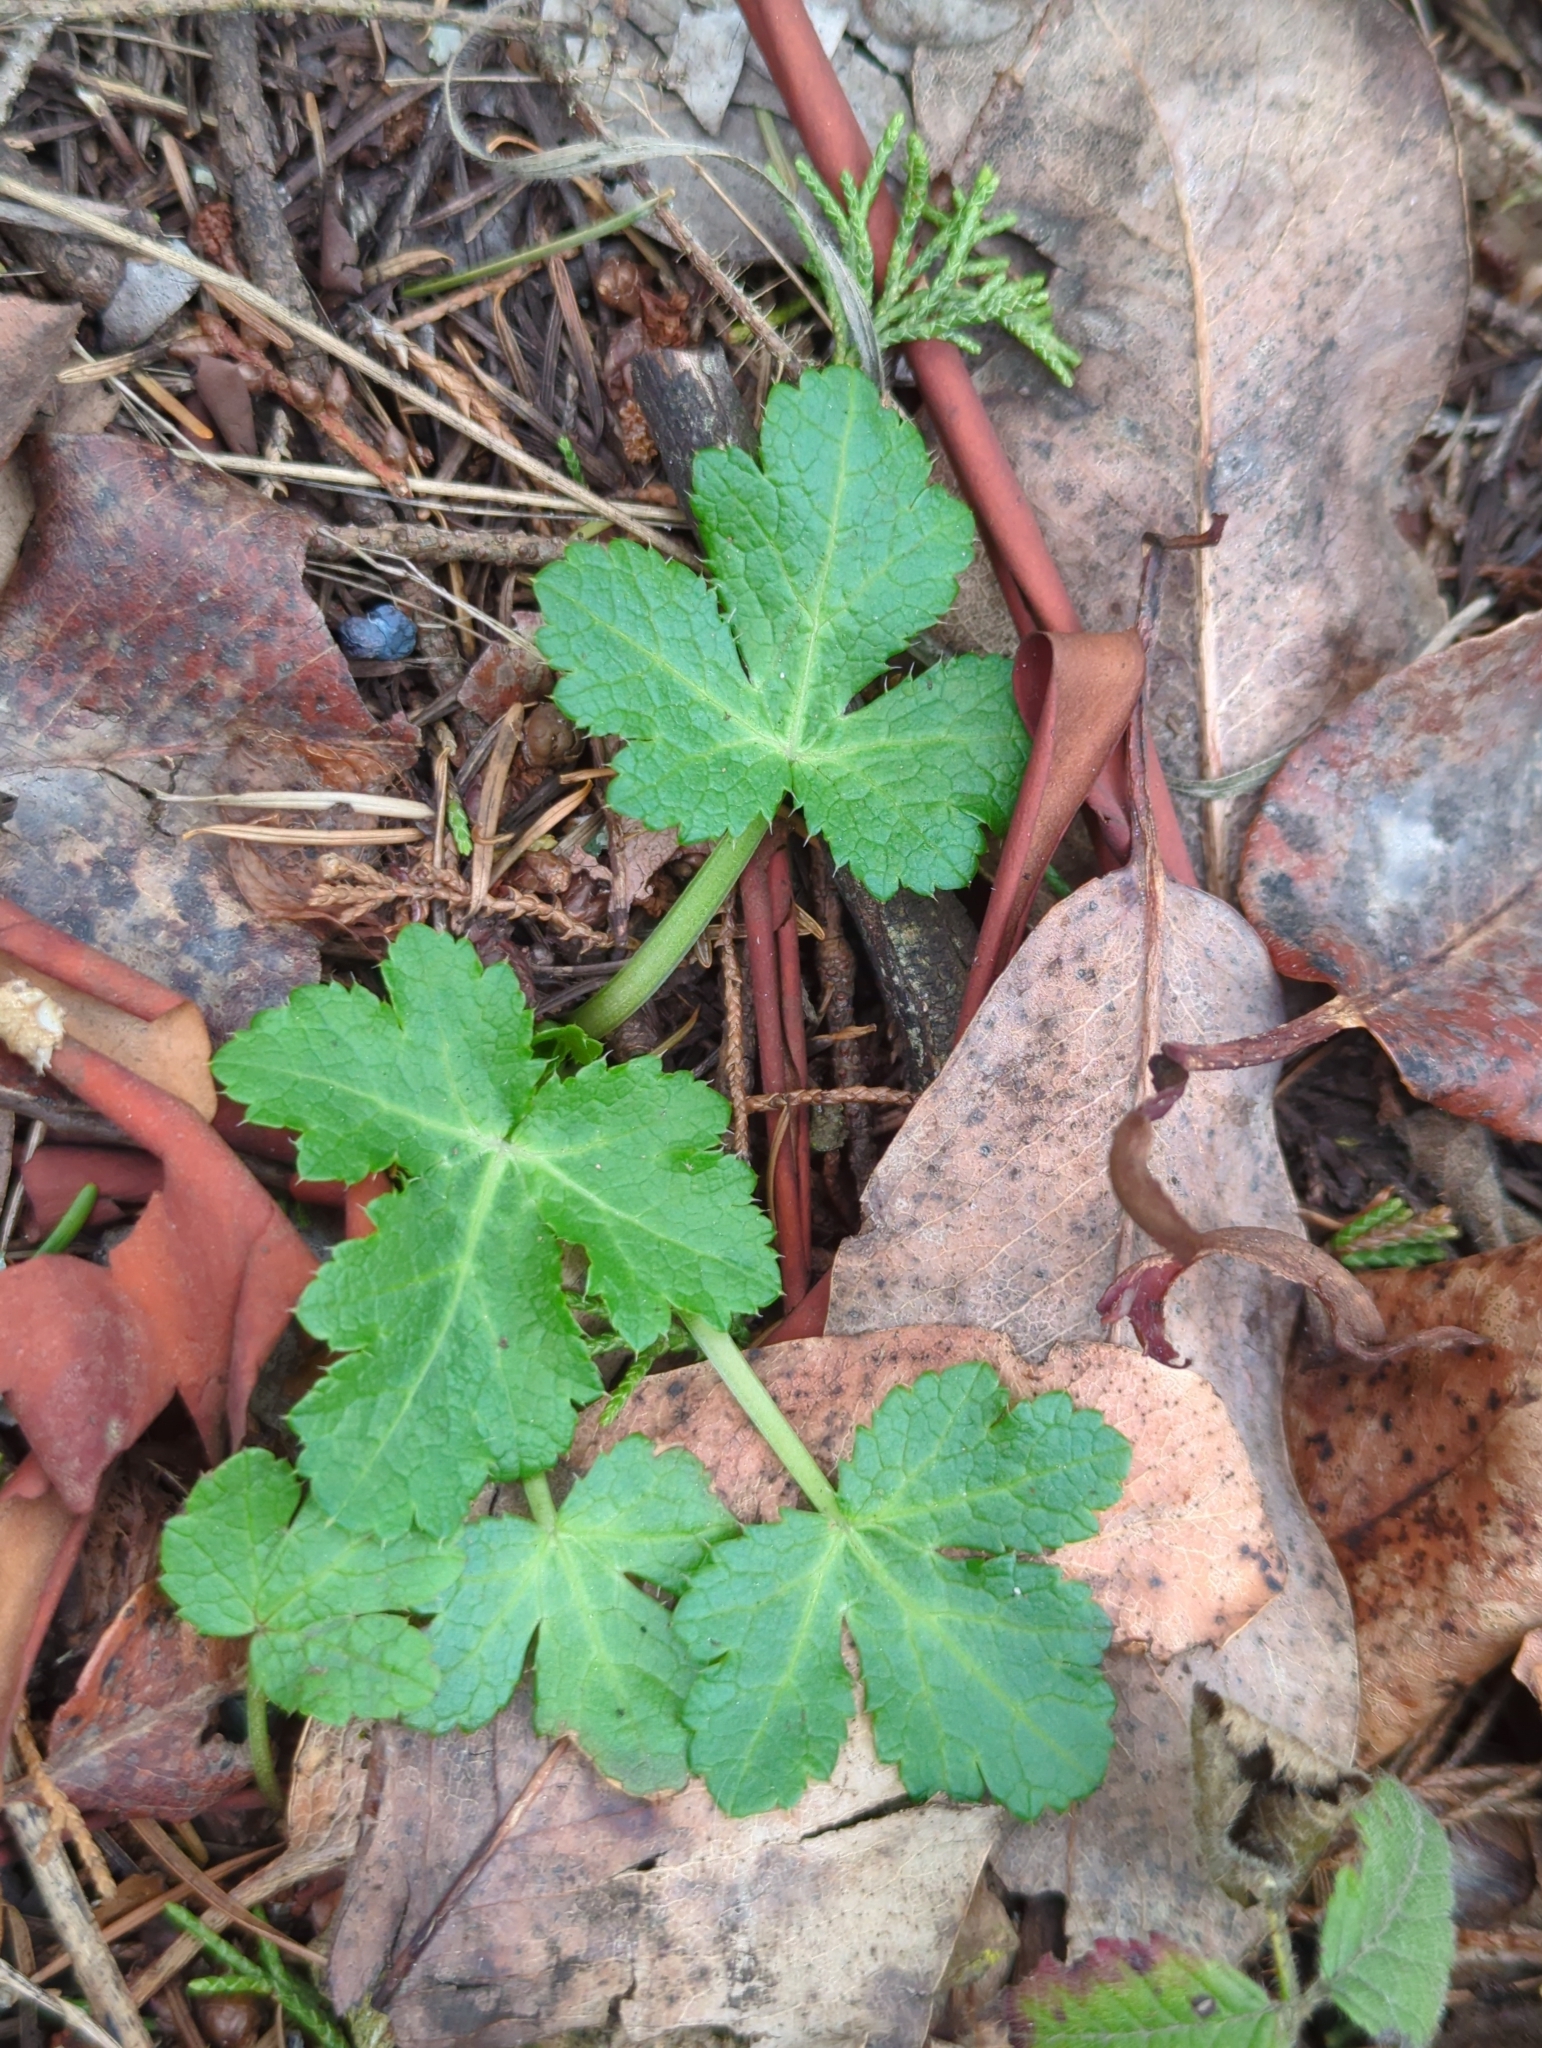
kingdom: Plantae
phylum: Tracheophyta
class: Magnoliopsida
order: Apiales
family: Apiaceae
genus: Sanicula
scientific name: Sanicula crassicaulis
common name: Western snakeroot
